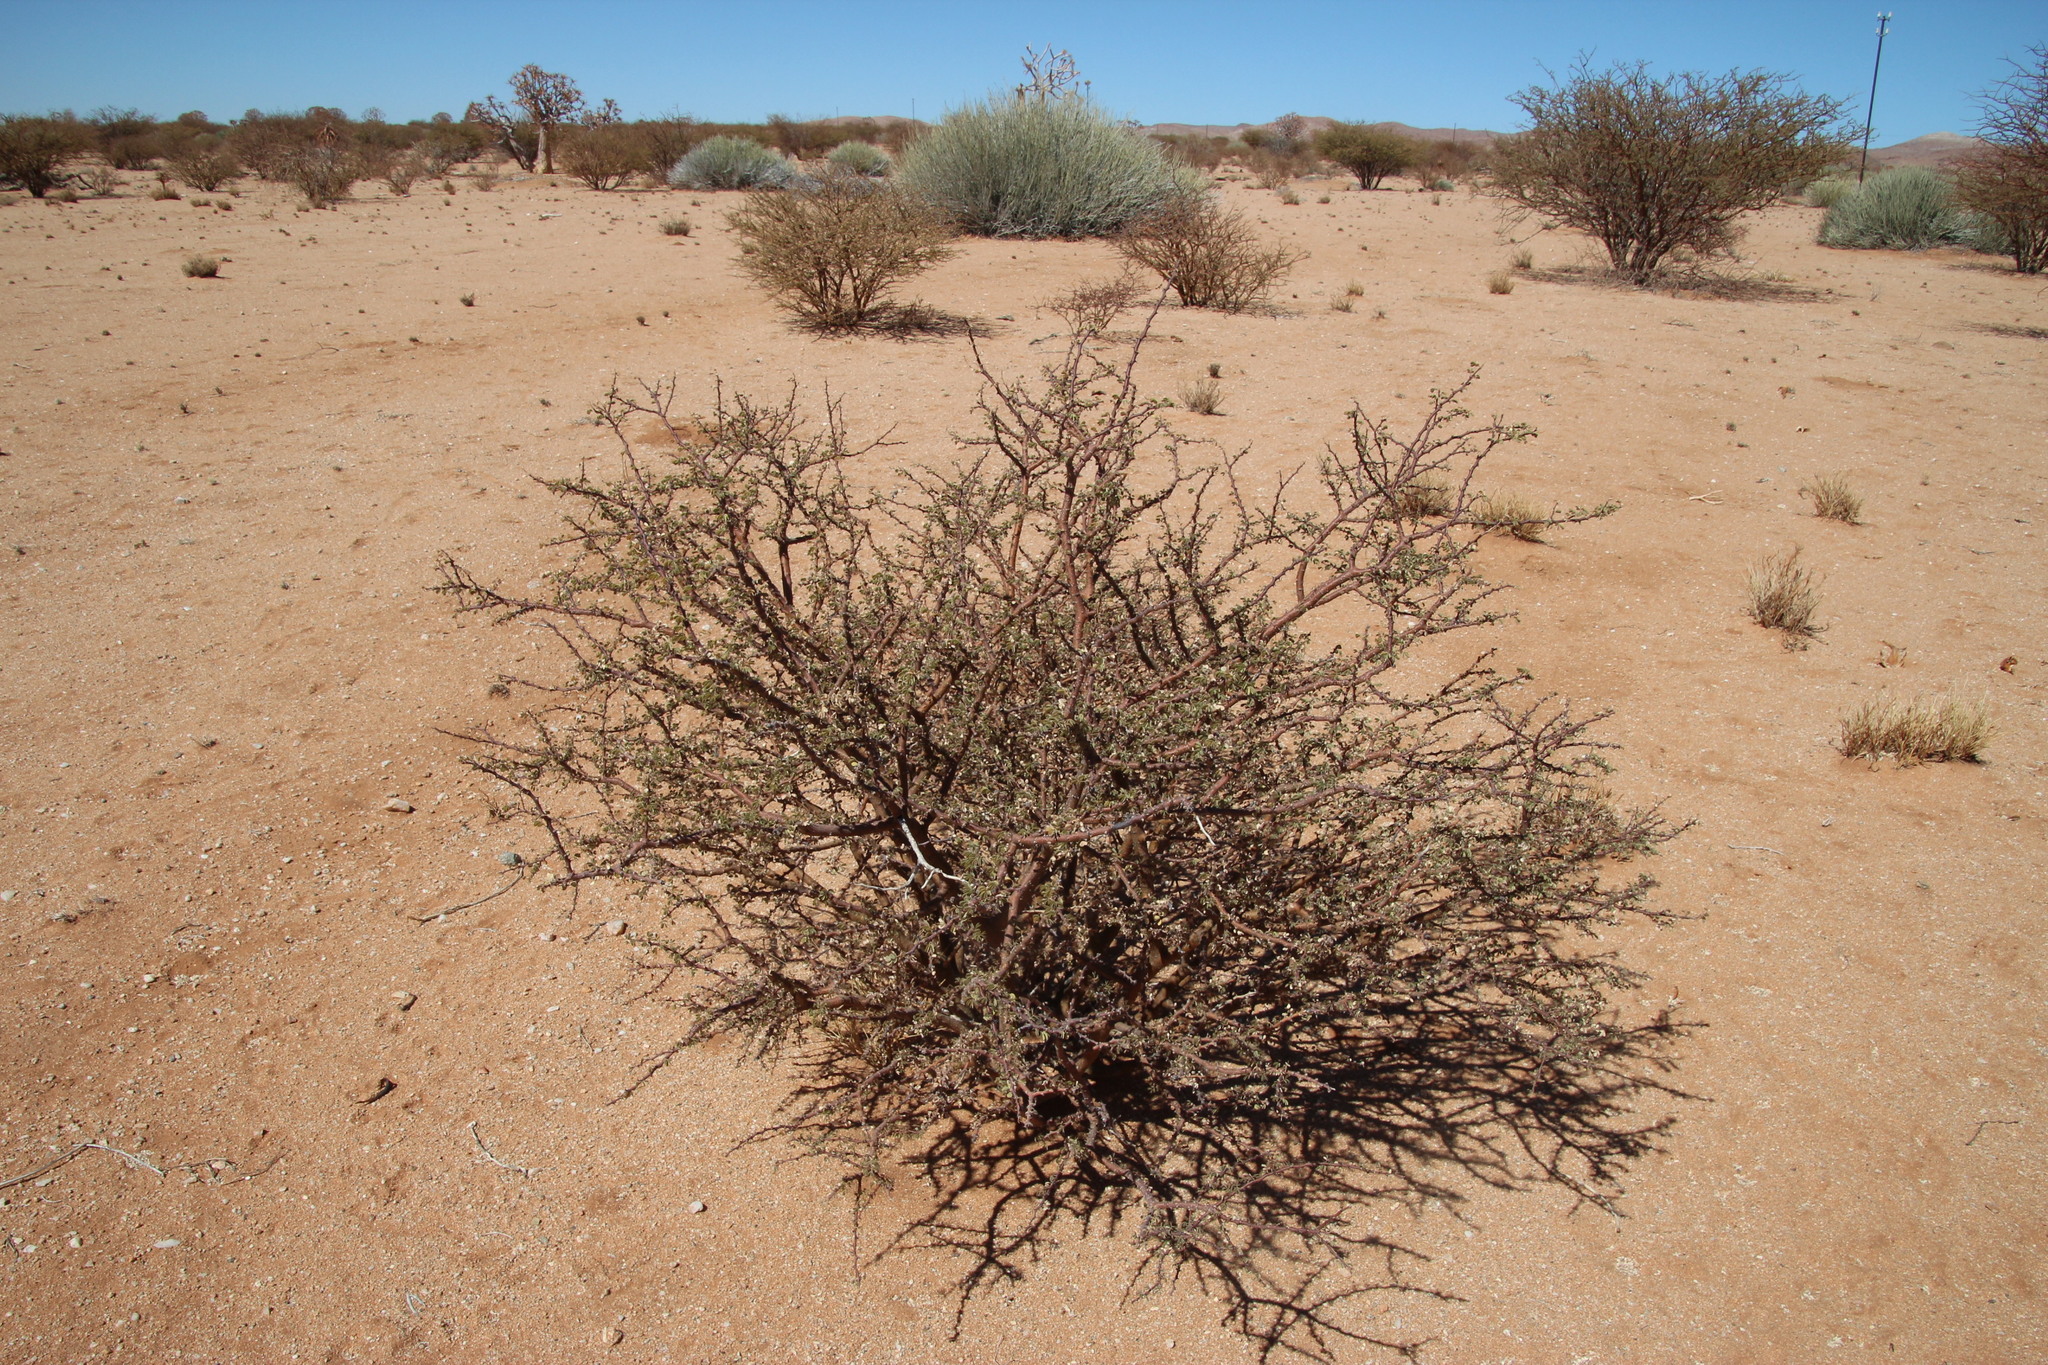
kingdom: Plantae
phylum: Tracheophyta
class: Magnoliopsida
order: Fabales
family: Fabaceae
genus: Senegalia
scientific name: Senegalia mellifera
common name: Hookthorn
